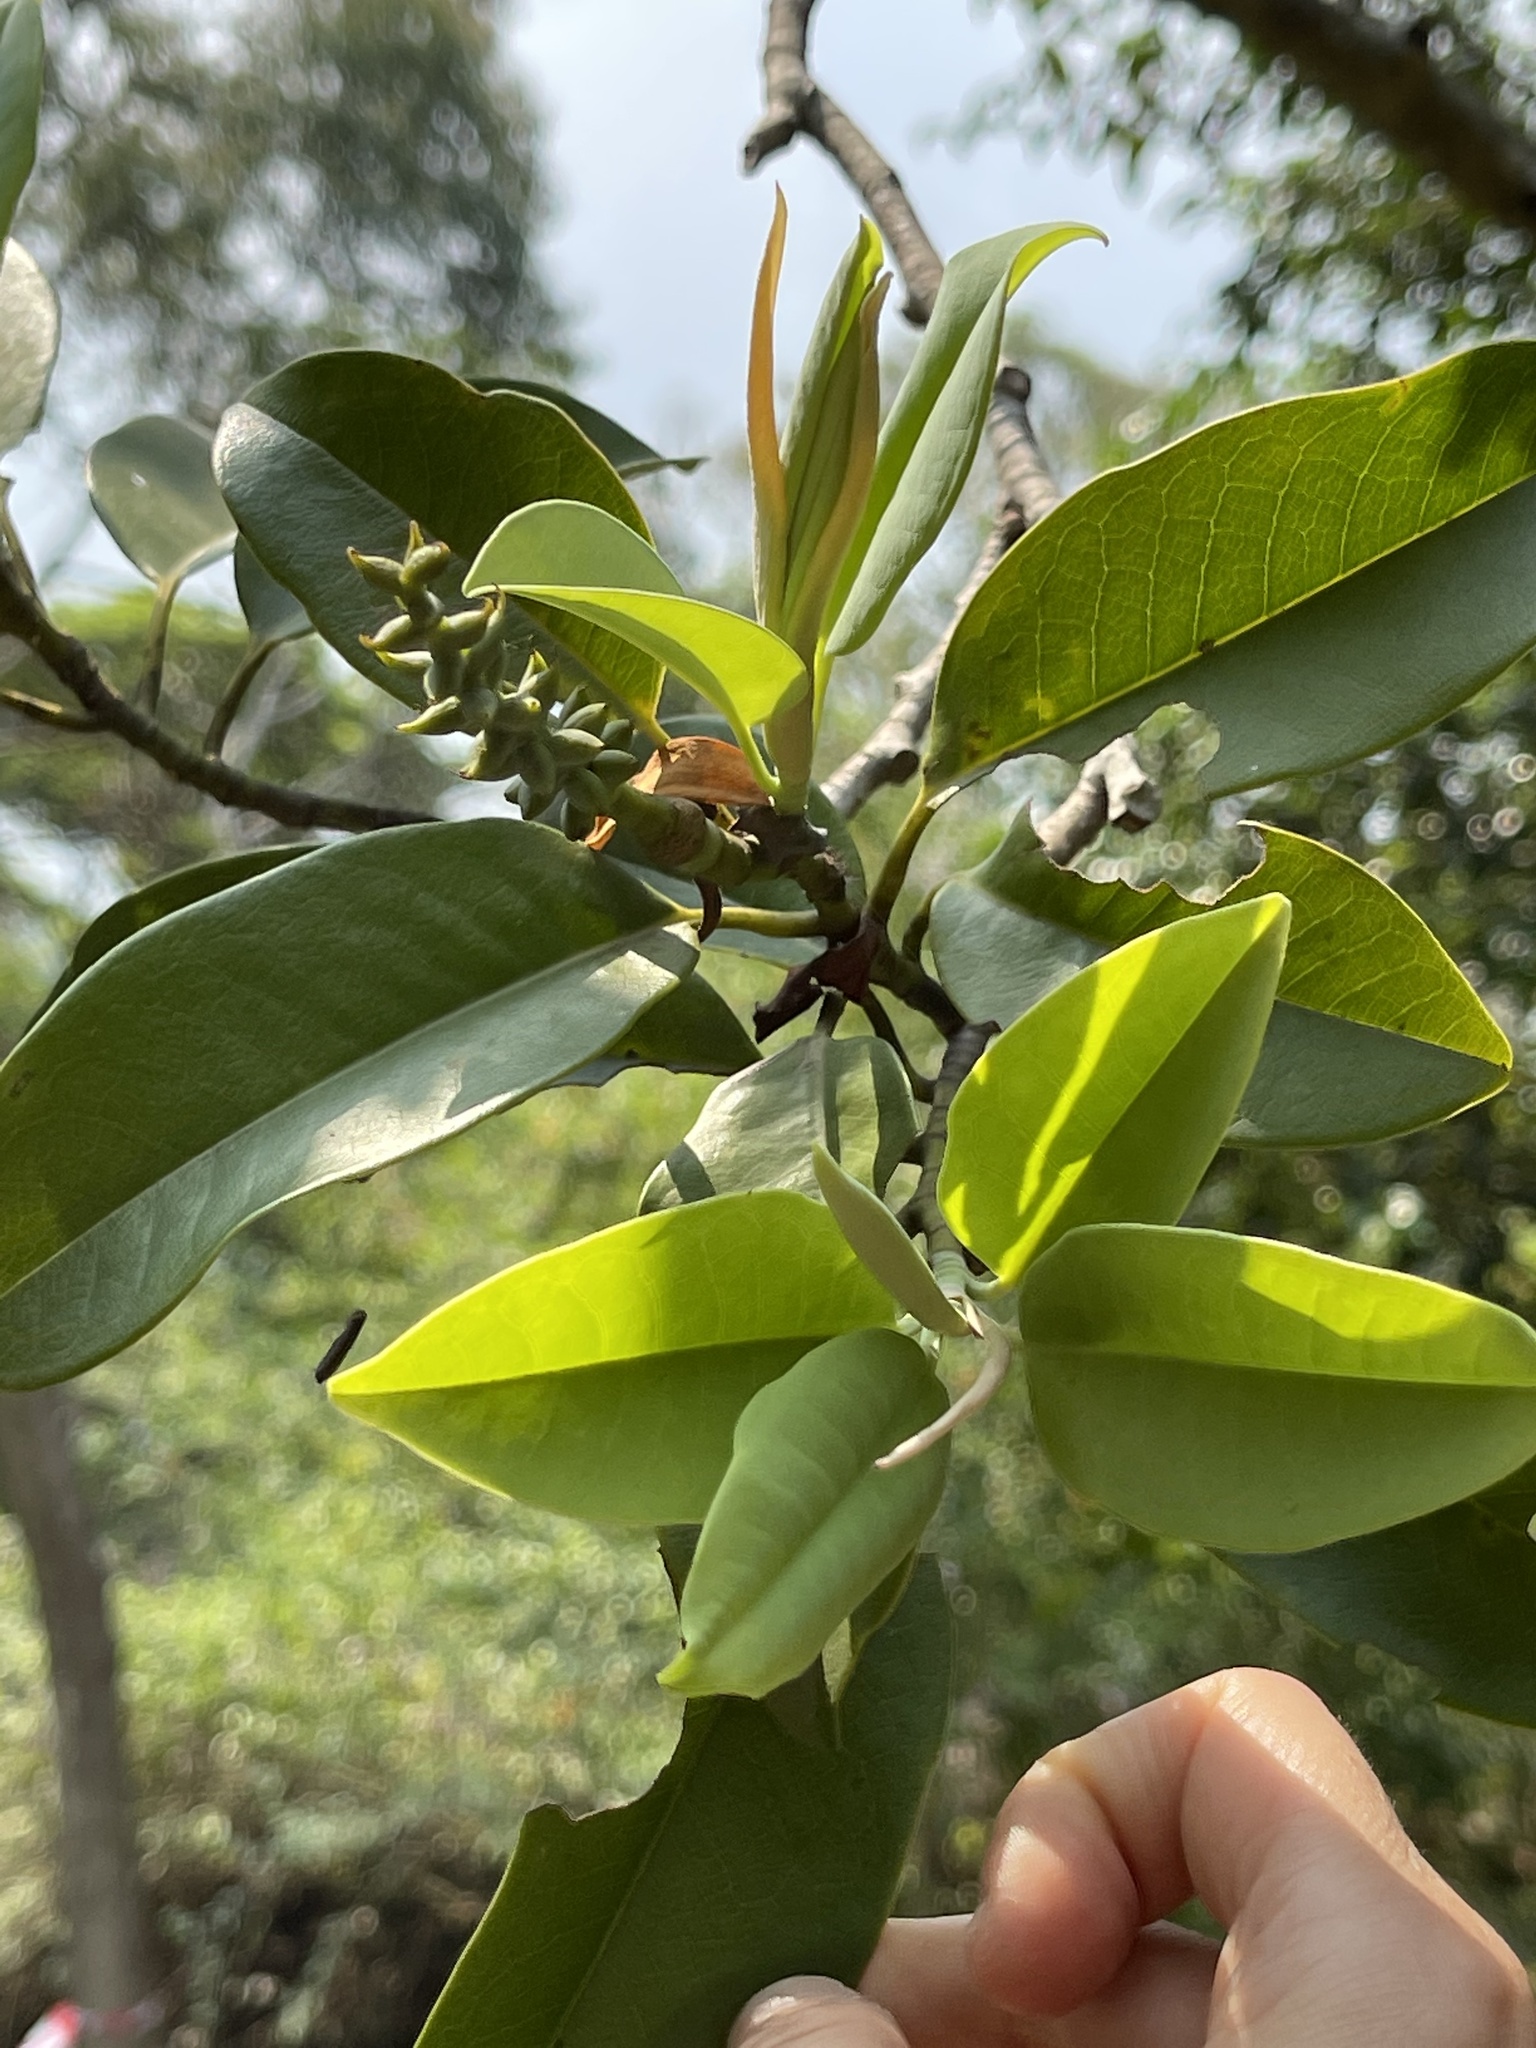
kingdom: Plantae
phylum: Tracheophyta
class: Magnoliopsida
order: Magnoliales
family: Magnoliaceae
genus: Magnolia
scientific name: Magnolia maudiae
